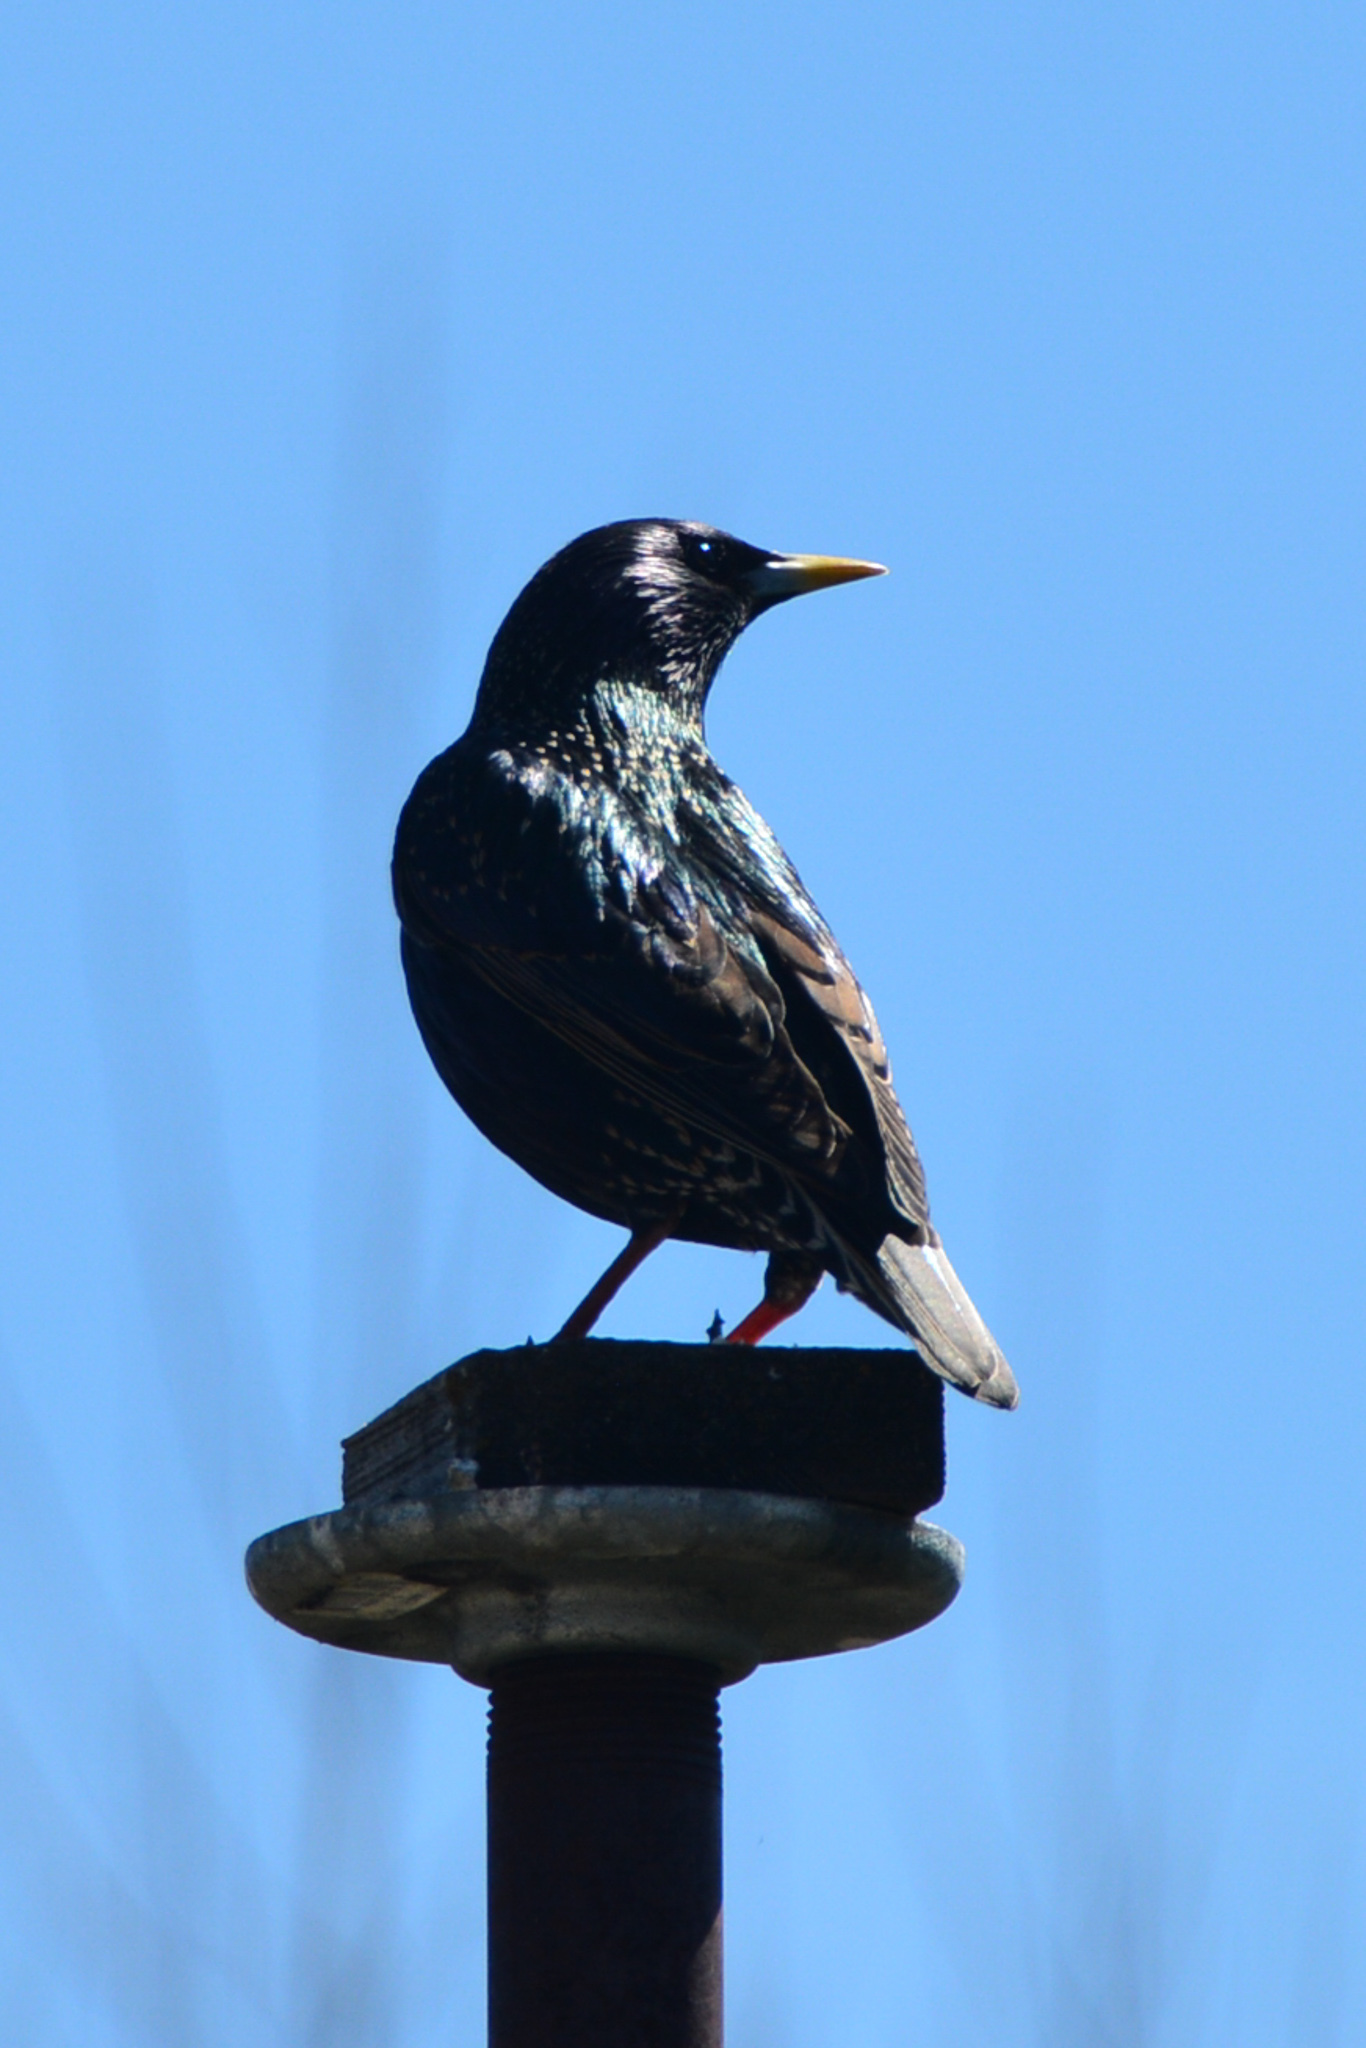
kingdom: Animalia
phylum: Chordata
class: Aves
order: Passeriformes
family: Sturnidae
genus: Sturnus
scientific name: Sturnus vulgaris
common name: Common starling
